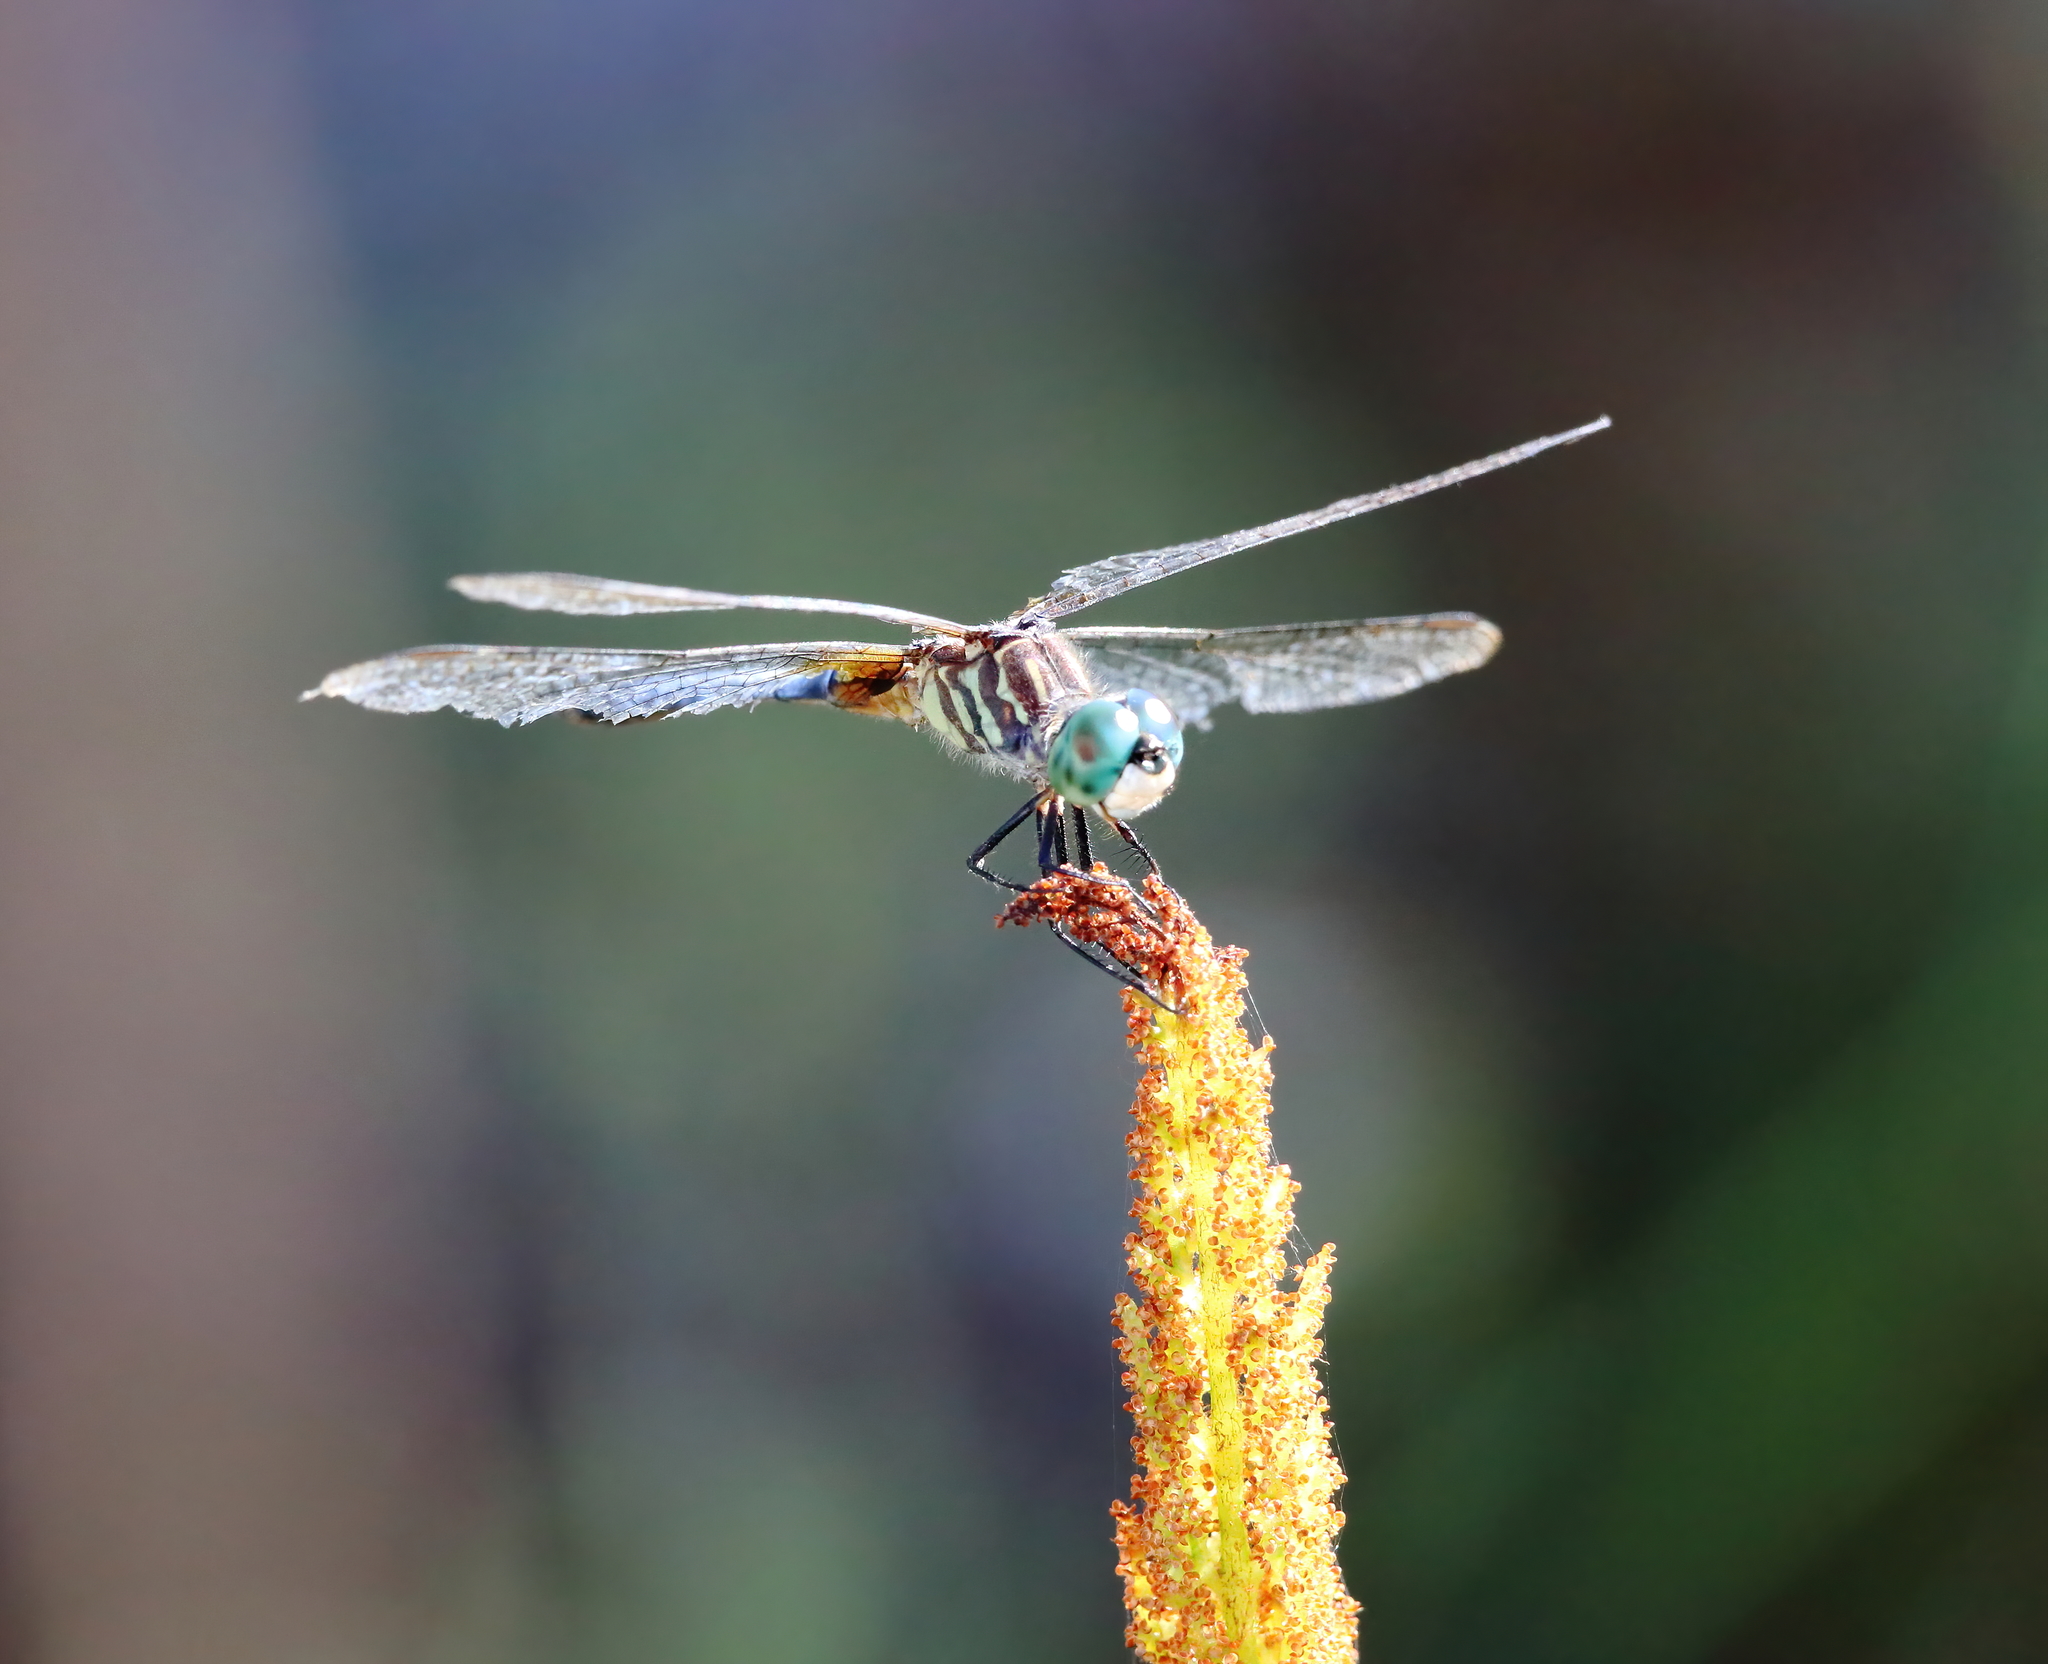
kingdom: Animalia
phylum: Arthropoda
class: Insecta
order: Odonata
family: Libellulidae
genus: Pachydiplax
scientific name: Pachydiplax longipennis
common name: Blue dasher
